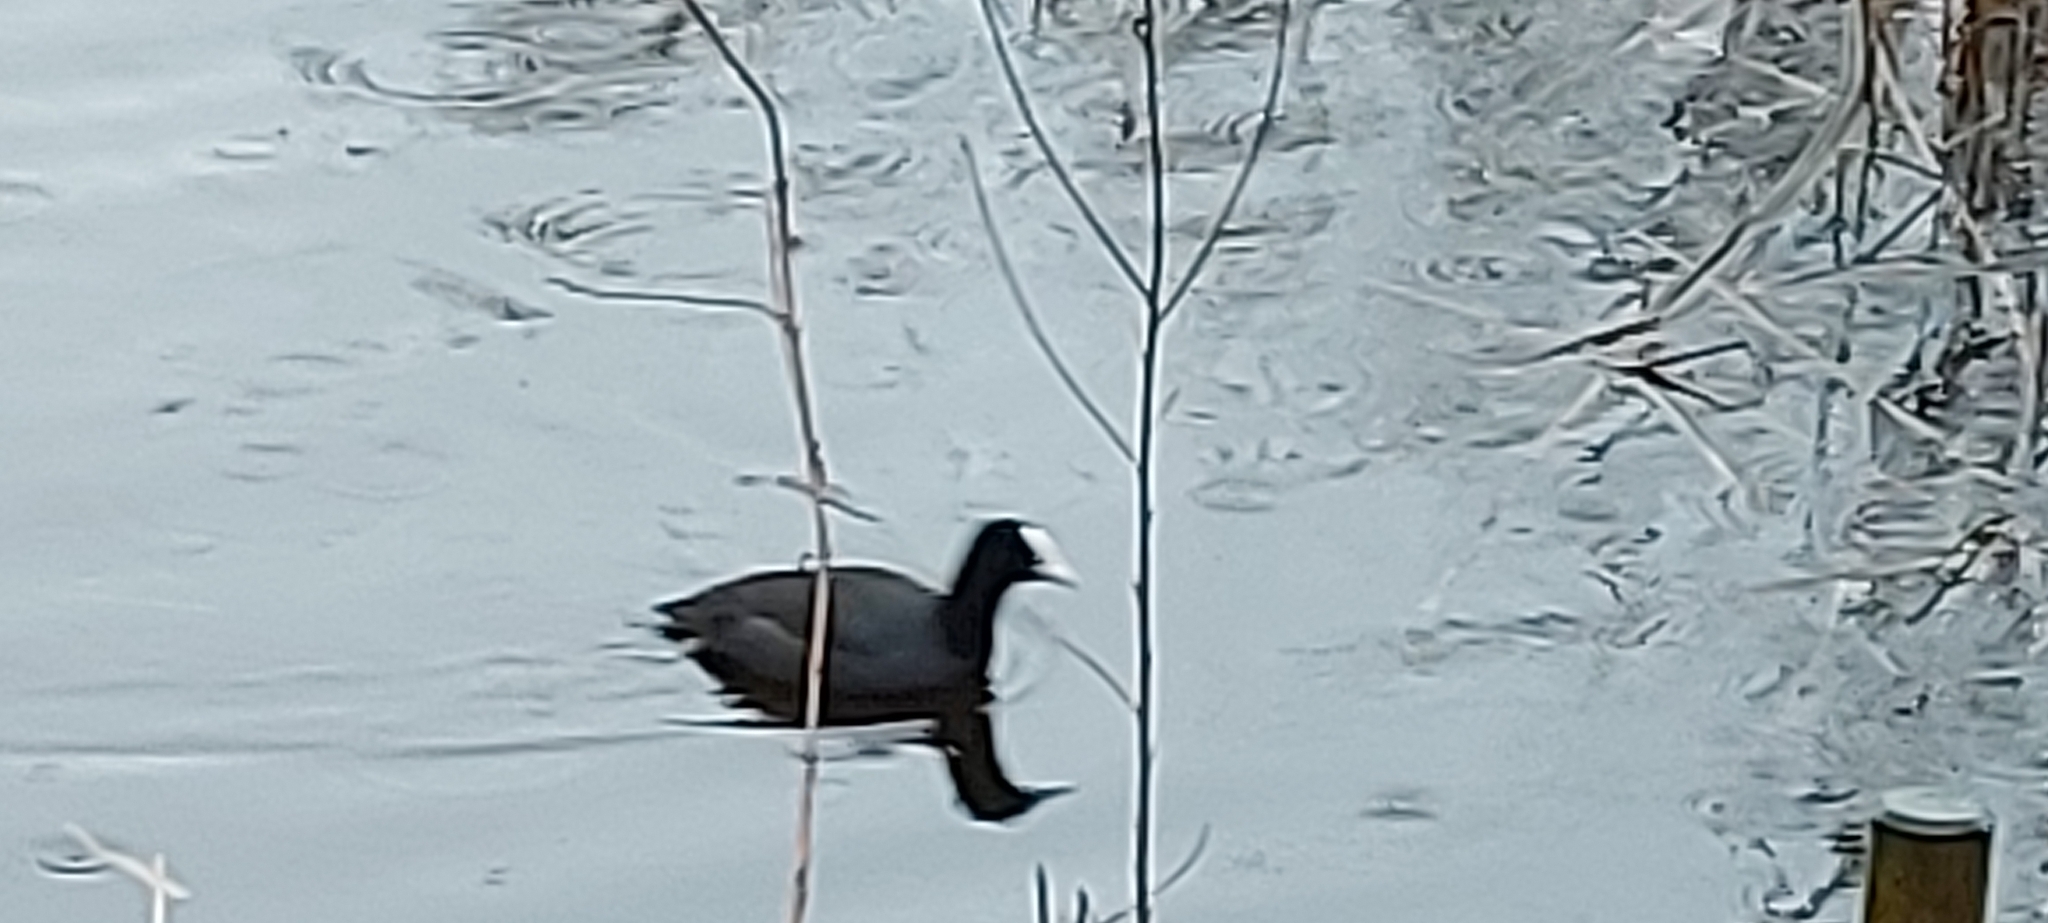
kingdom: Animalia
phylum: Chordata
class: Aves
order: Gruiformes
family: Rallidae
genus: Fulica
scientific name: Fulica atra
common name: Eurasian coot
